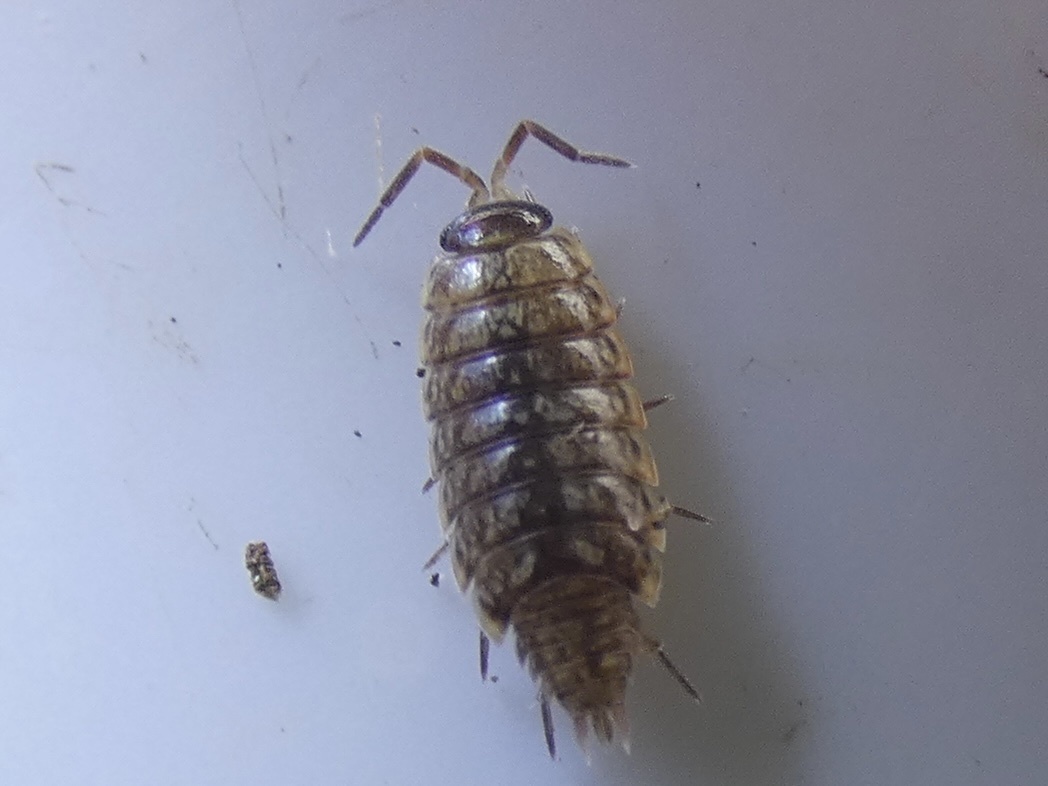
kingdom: Animalia
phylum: Arthropoda
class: Malacostraca
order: Isopoda
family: Philosciidae
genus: Philoscia
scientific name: Philoscia muscorum
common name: Common striped woodlouse
